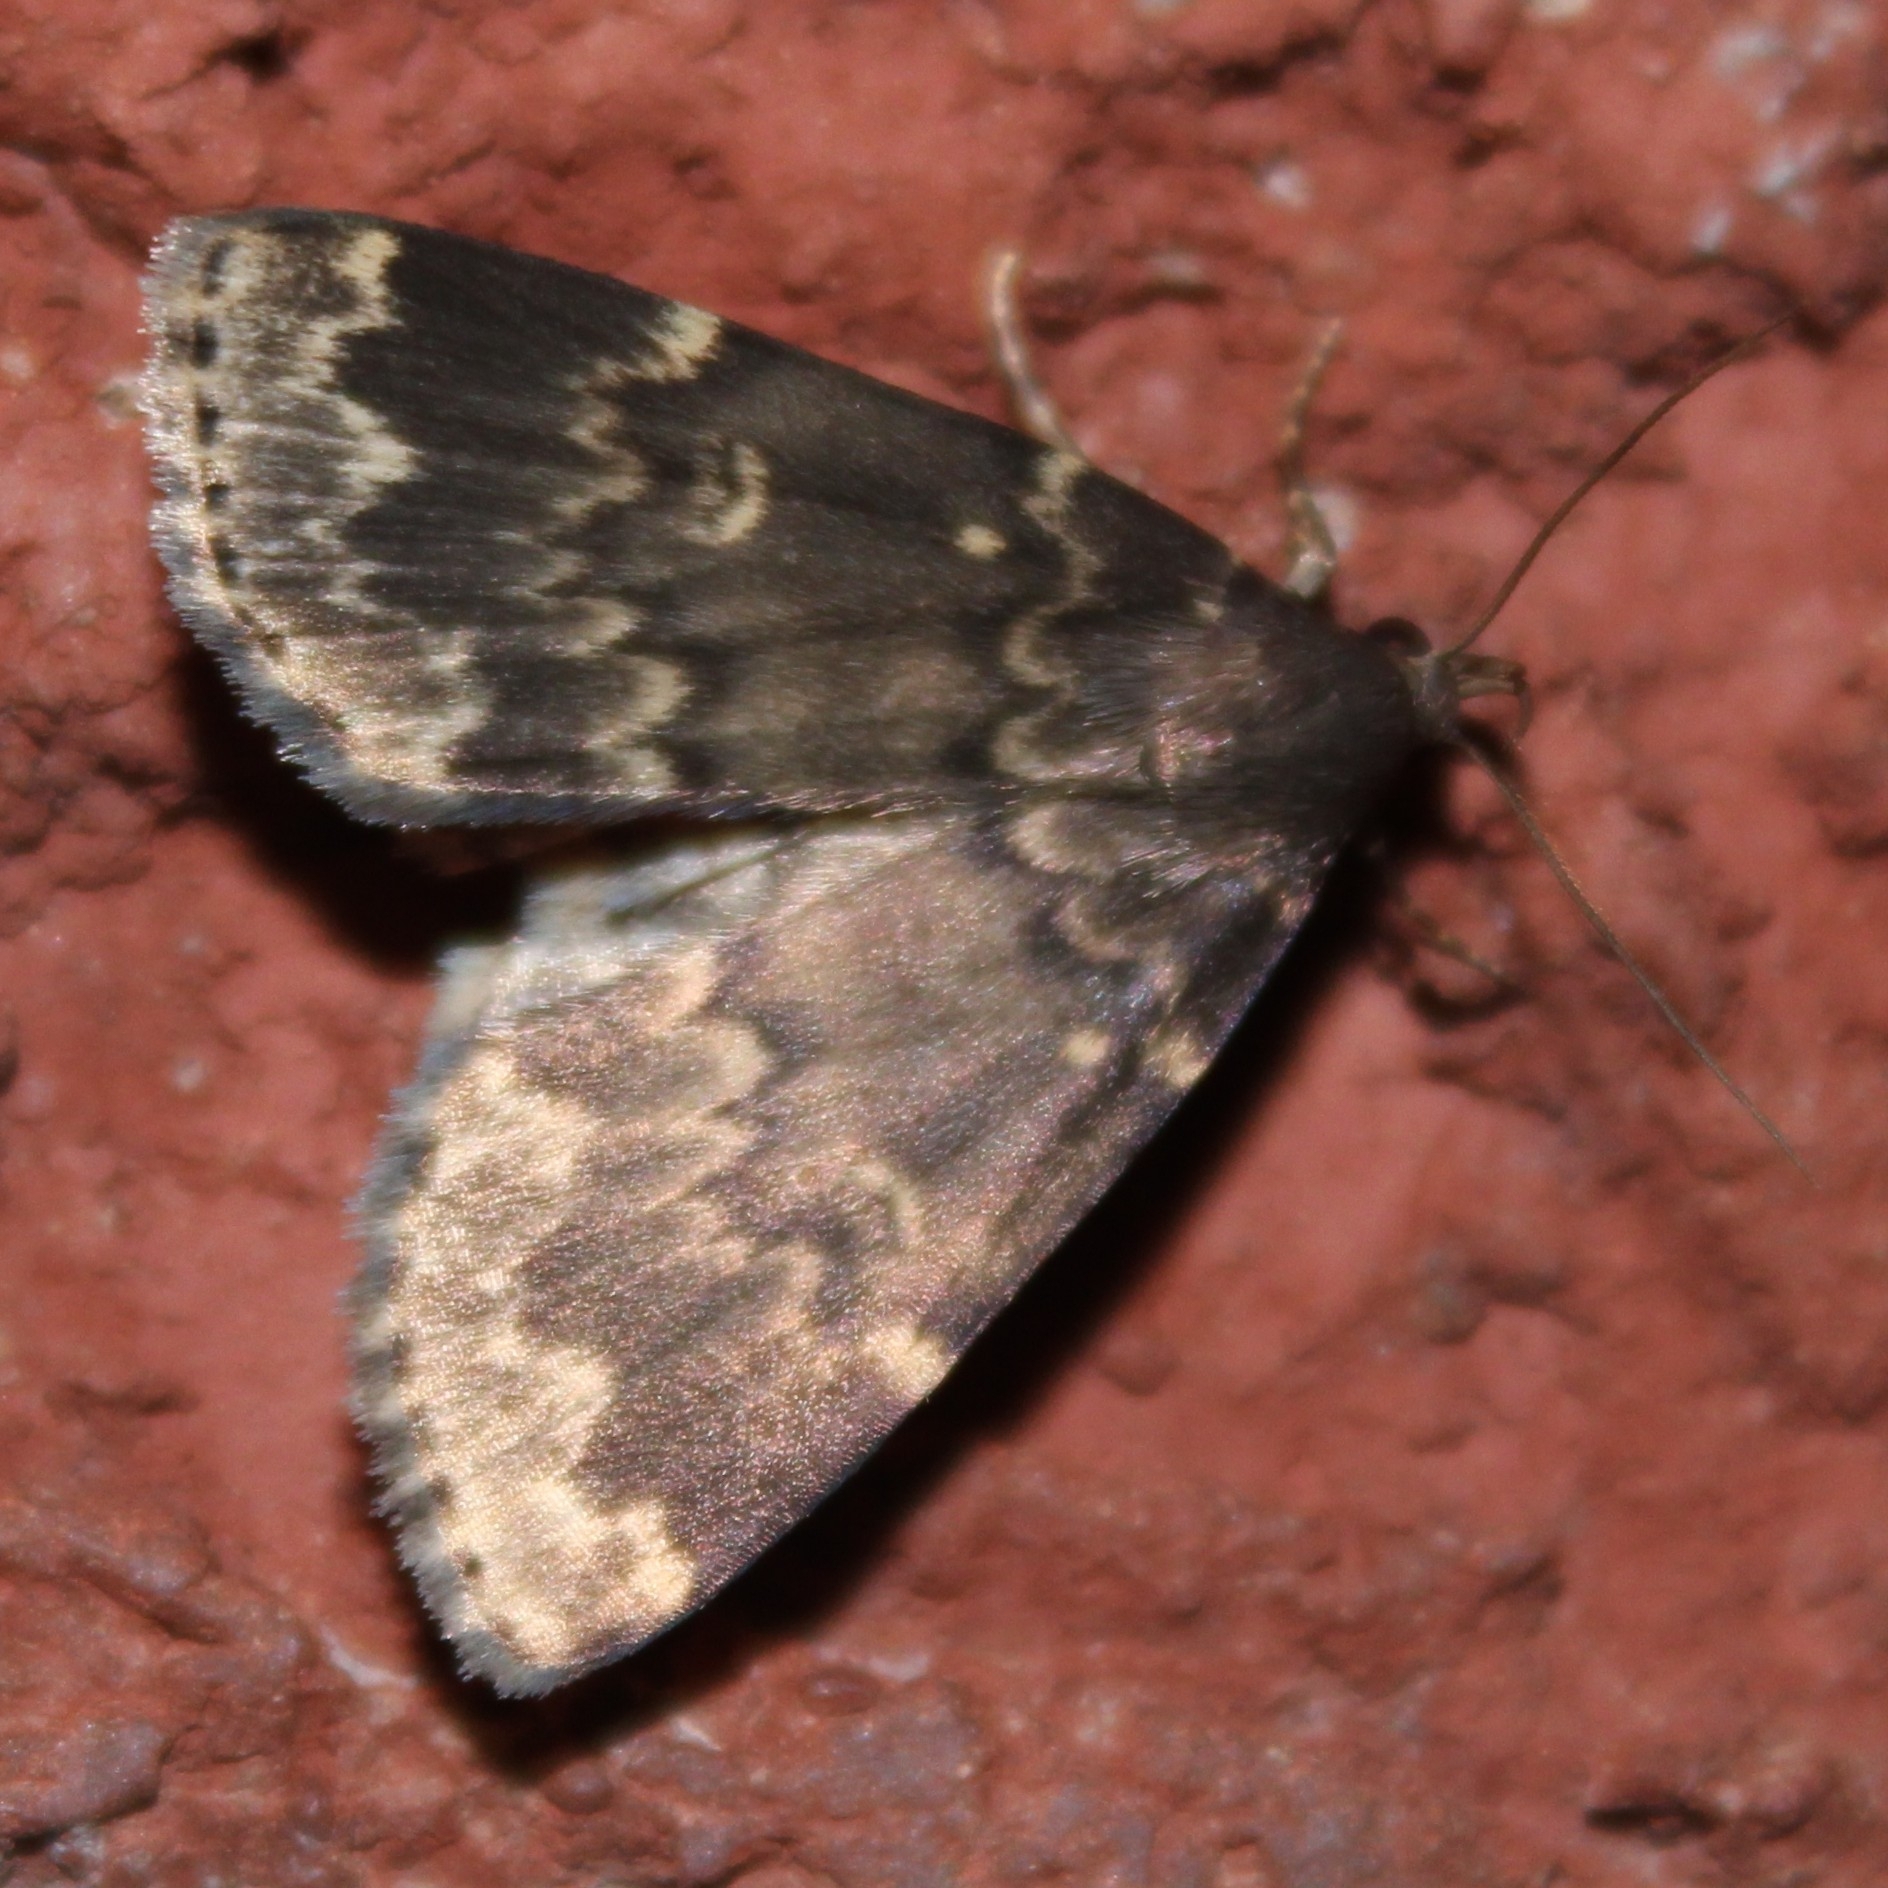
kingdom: Animalia
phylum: Arthropoda
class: Insecta
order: Lepidoptera
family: Erebidae
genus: Idia
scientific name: Idia lubricalis
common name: Twin-striped tabby
